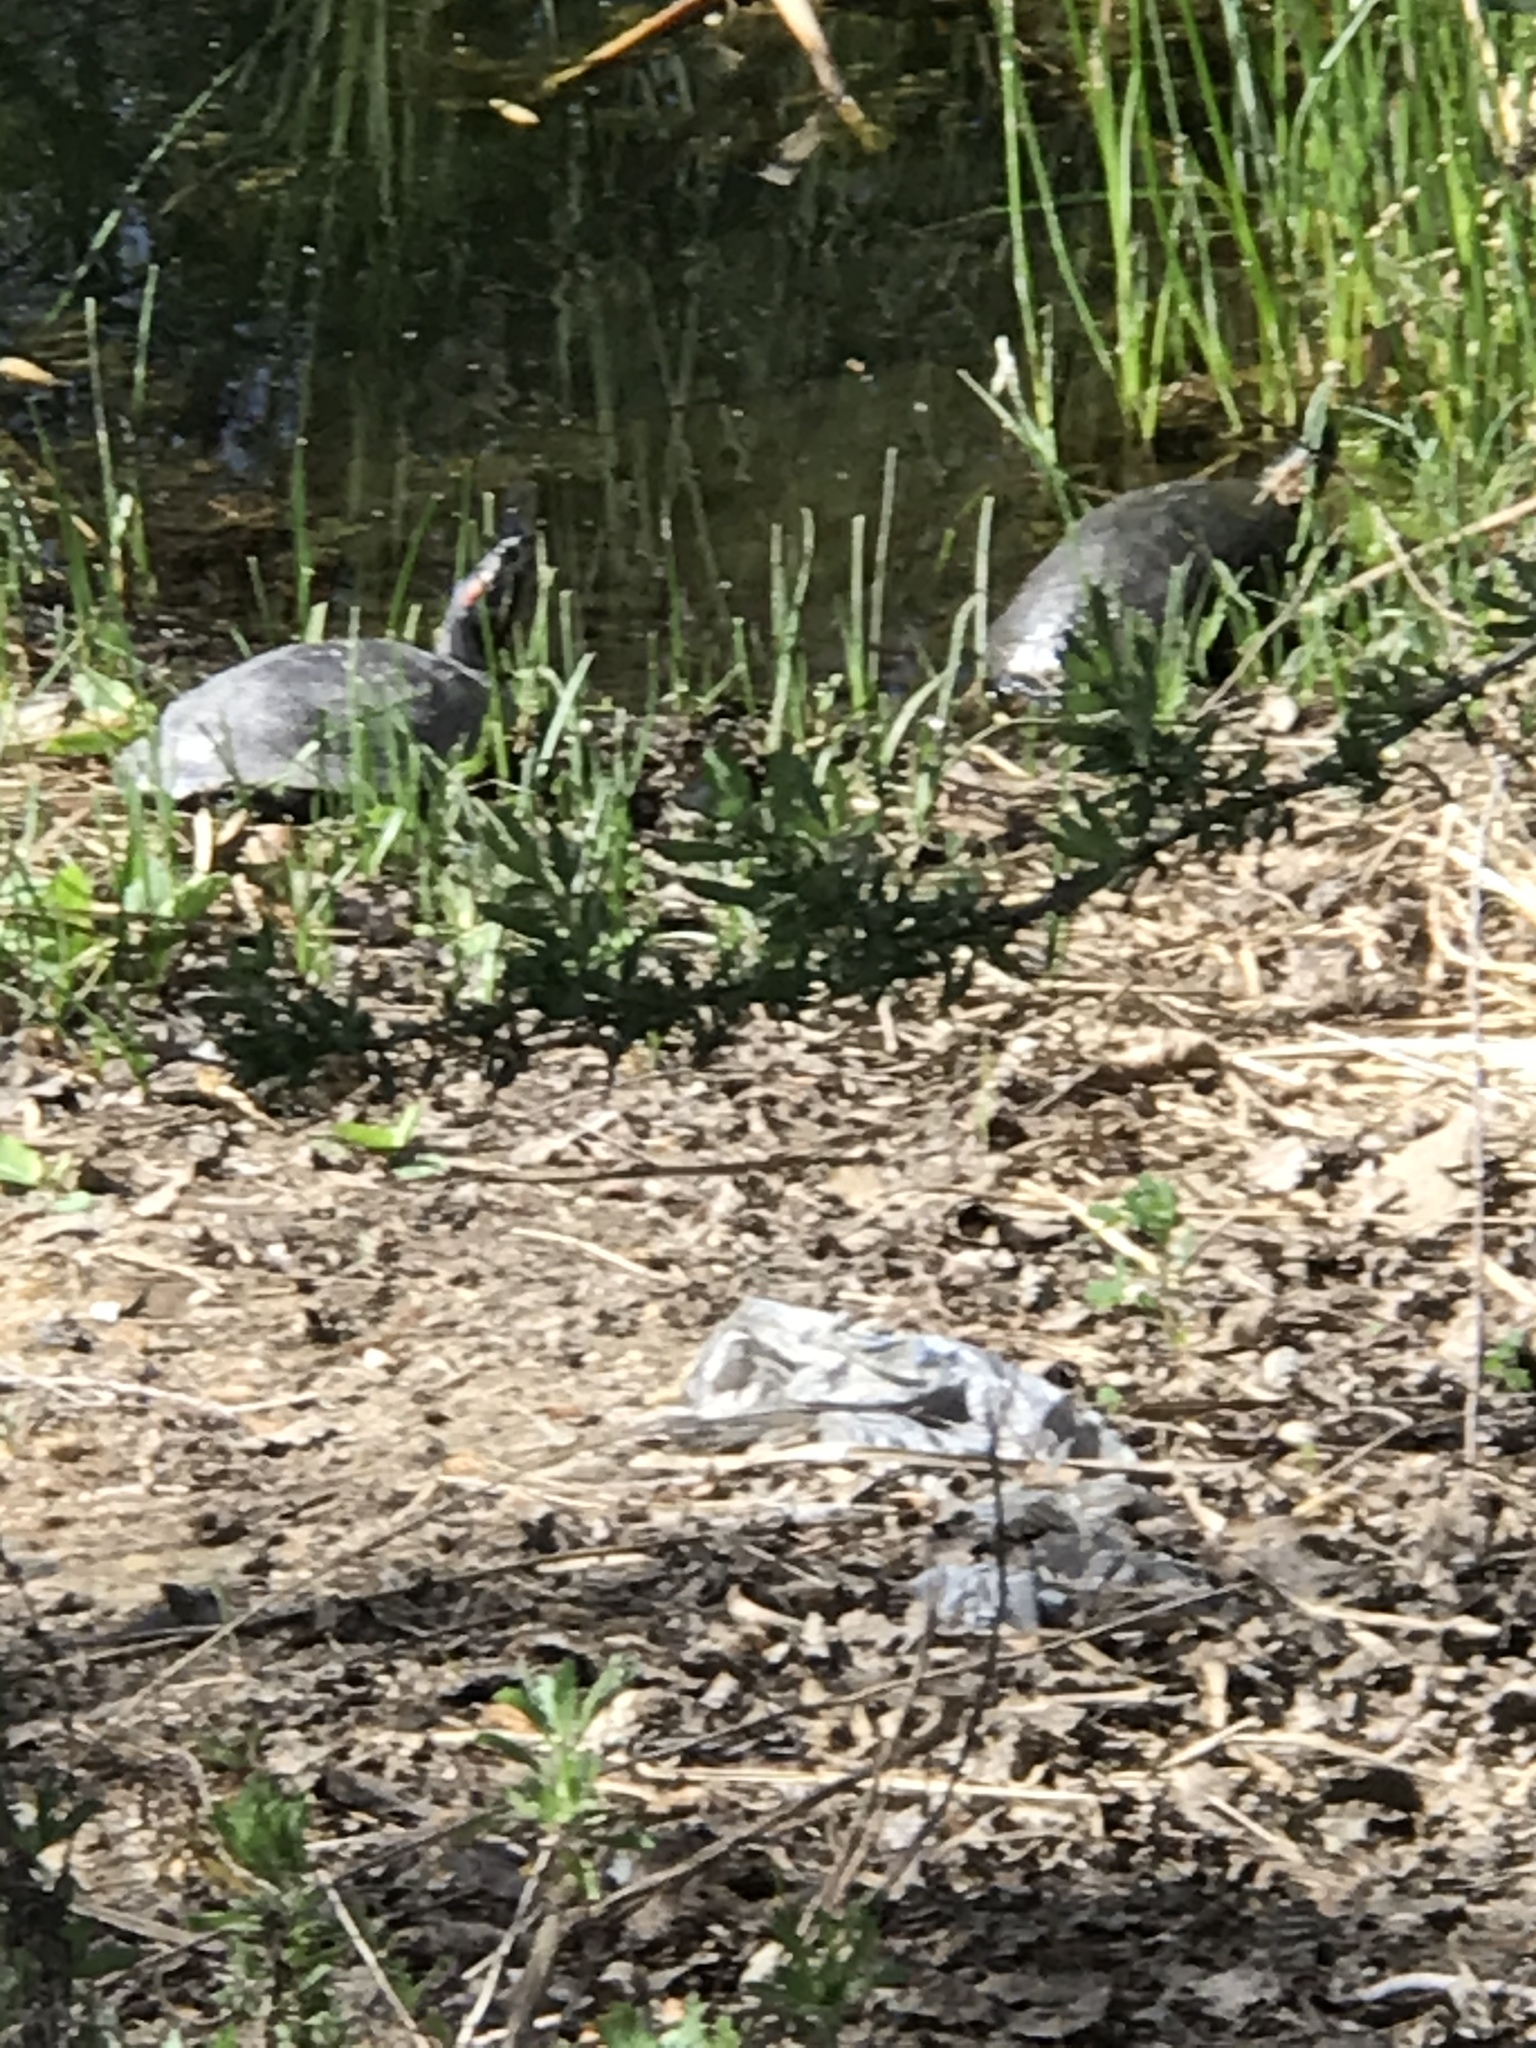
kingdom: Animalia
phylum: Chordata
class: Testudines
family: Emydidae
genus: Trachemys
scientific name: Trachemys scripta
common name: Slider
